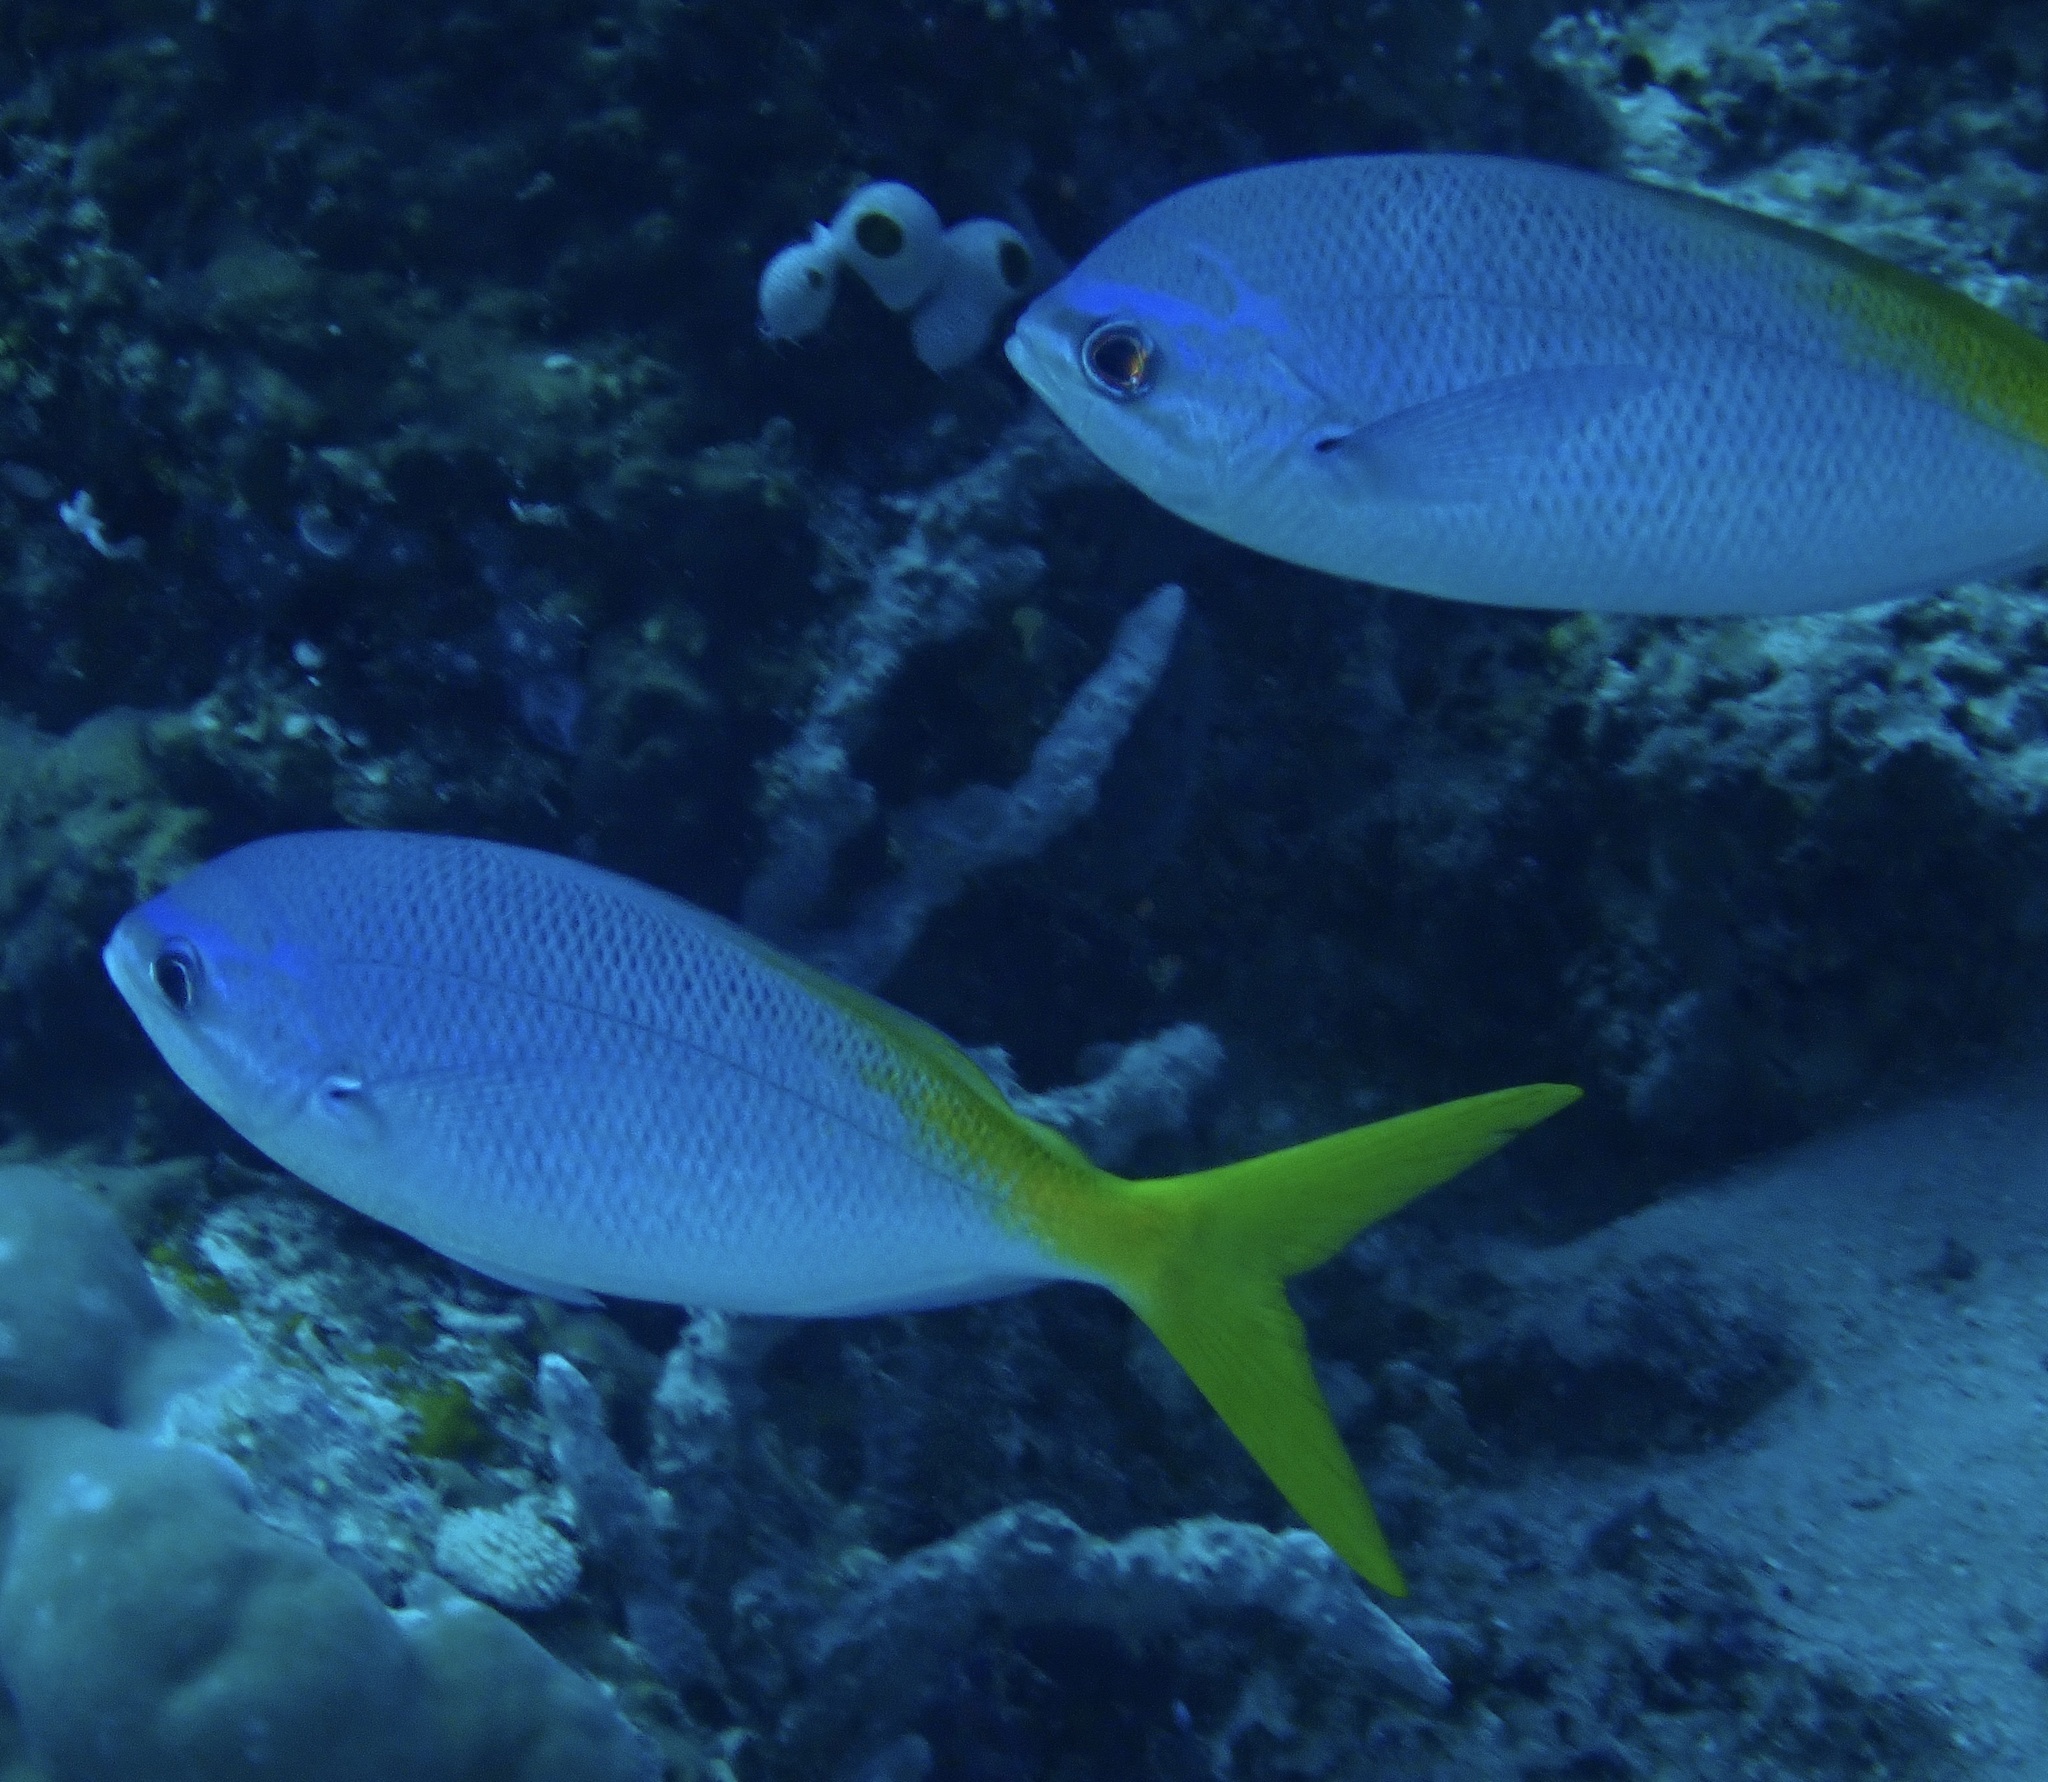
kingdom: Animalia
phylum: Chordata
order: Perciformes
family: Caesionidae
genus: Caesio
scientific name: Caesio cuning
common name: Red-bellied fusilier
